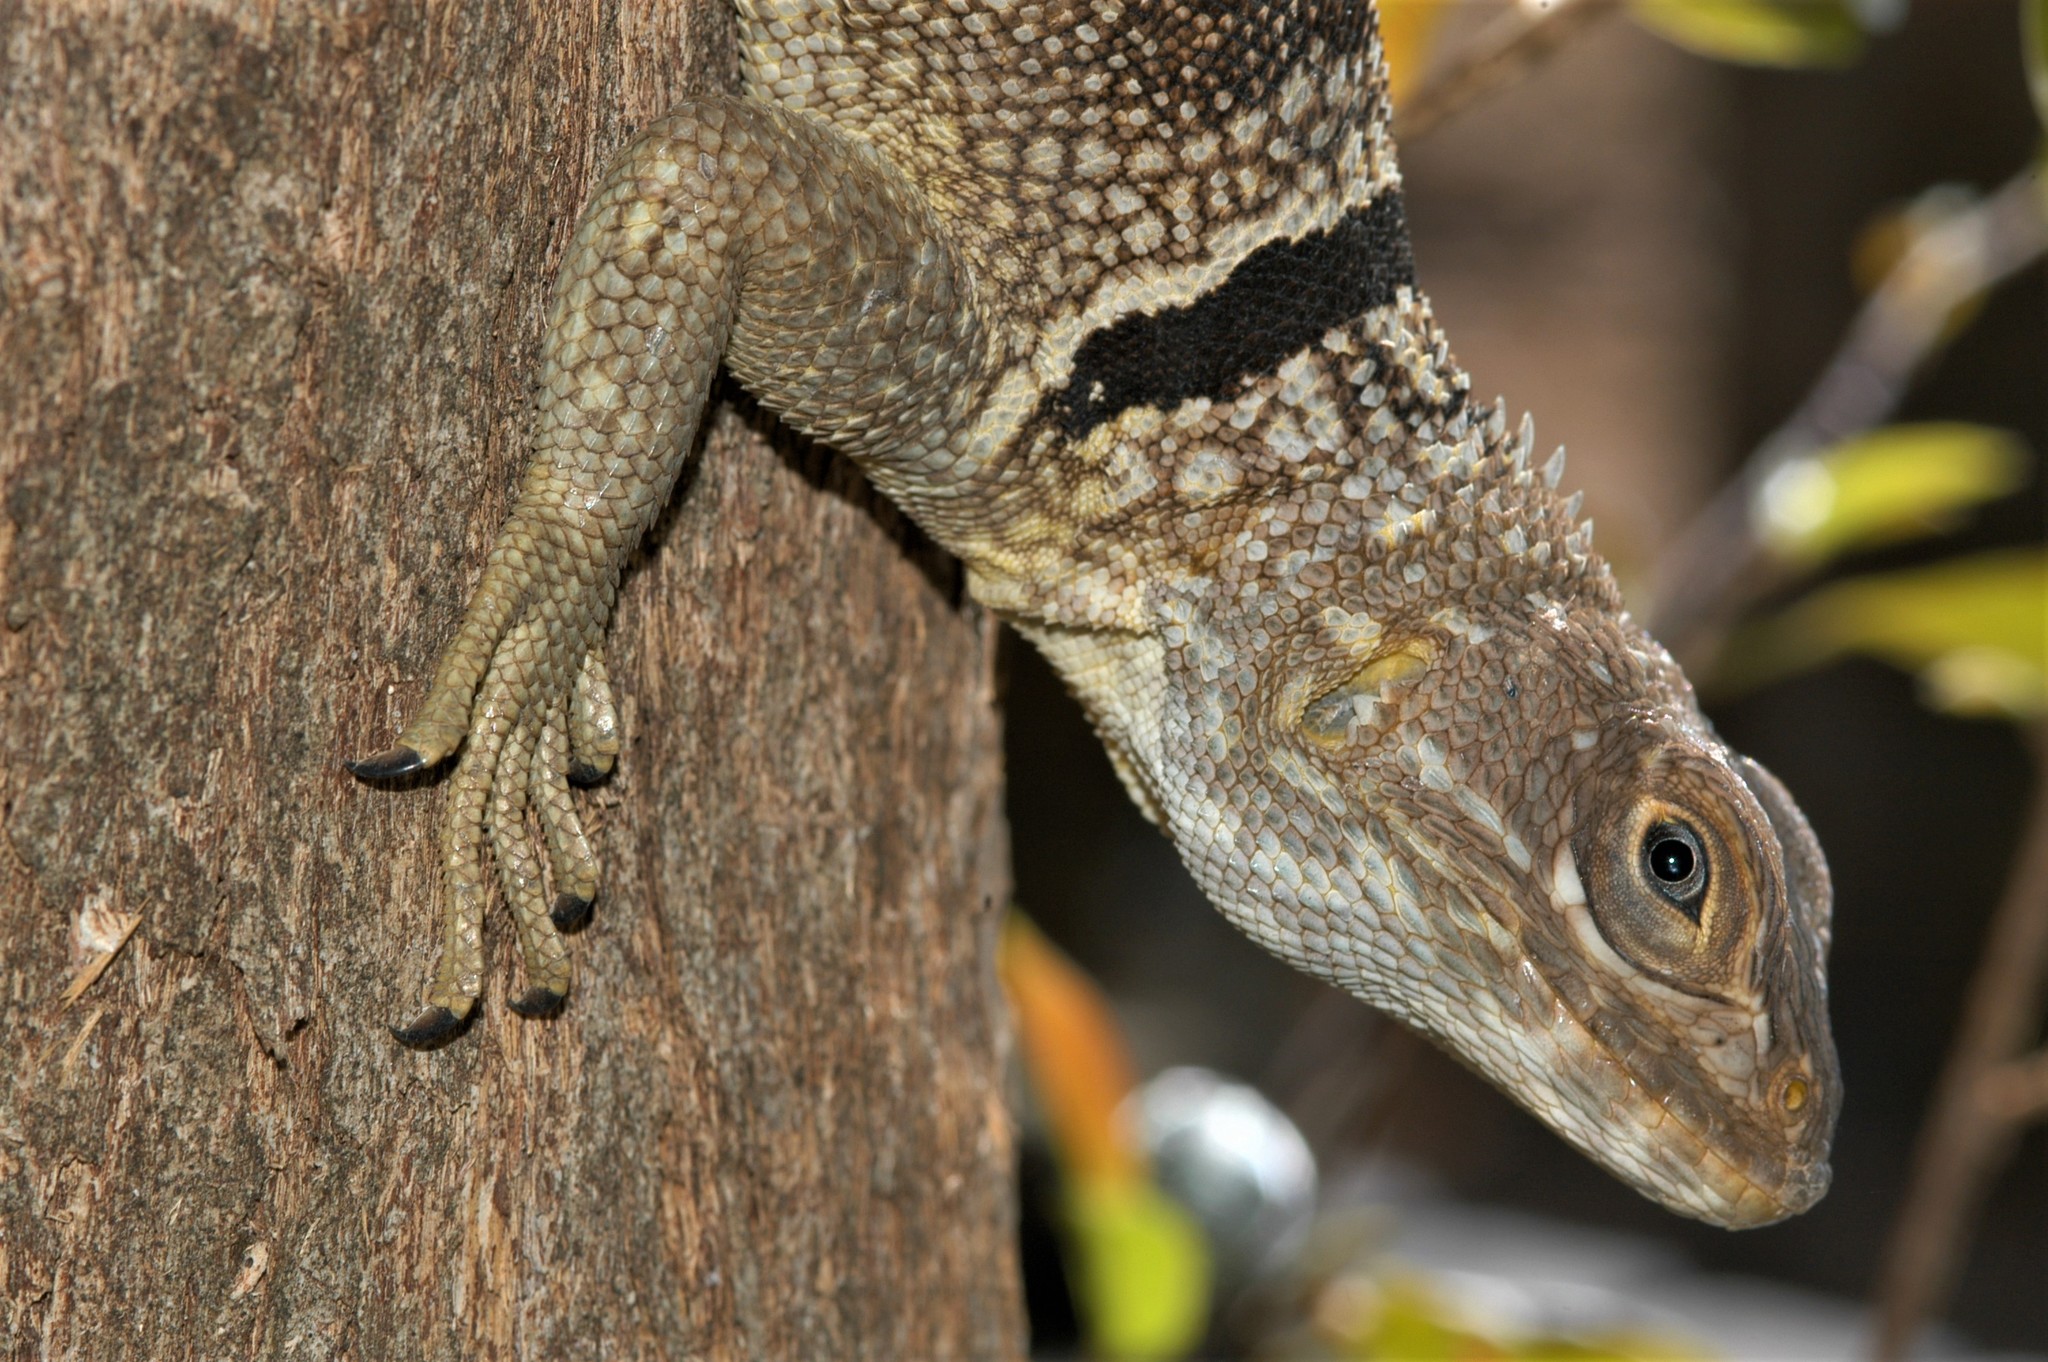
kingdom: Animalia
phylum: Chordata
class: Squamata
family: Opluridae
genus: Oplurus
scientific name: Oplurus cuvieri
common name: Cuvier's madagascar swift
